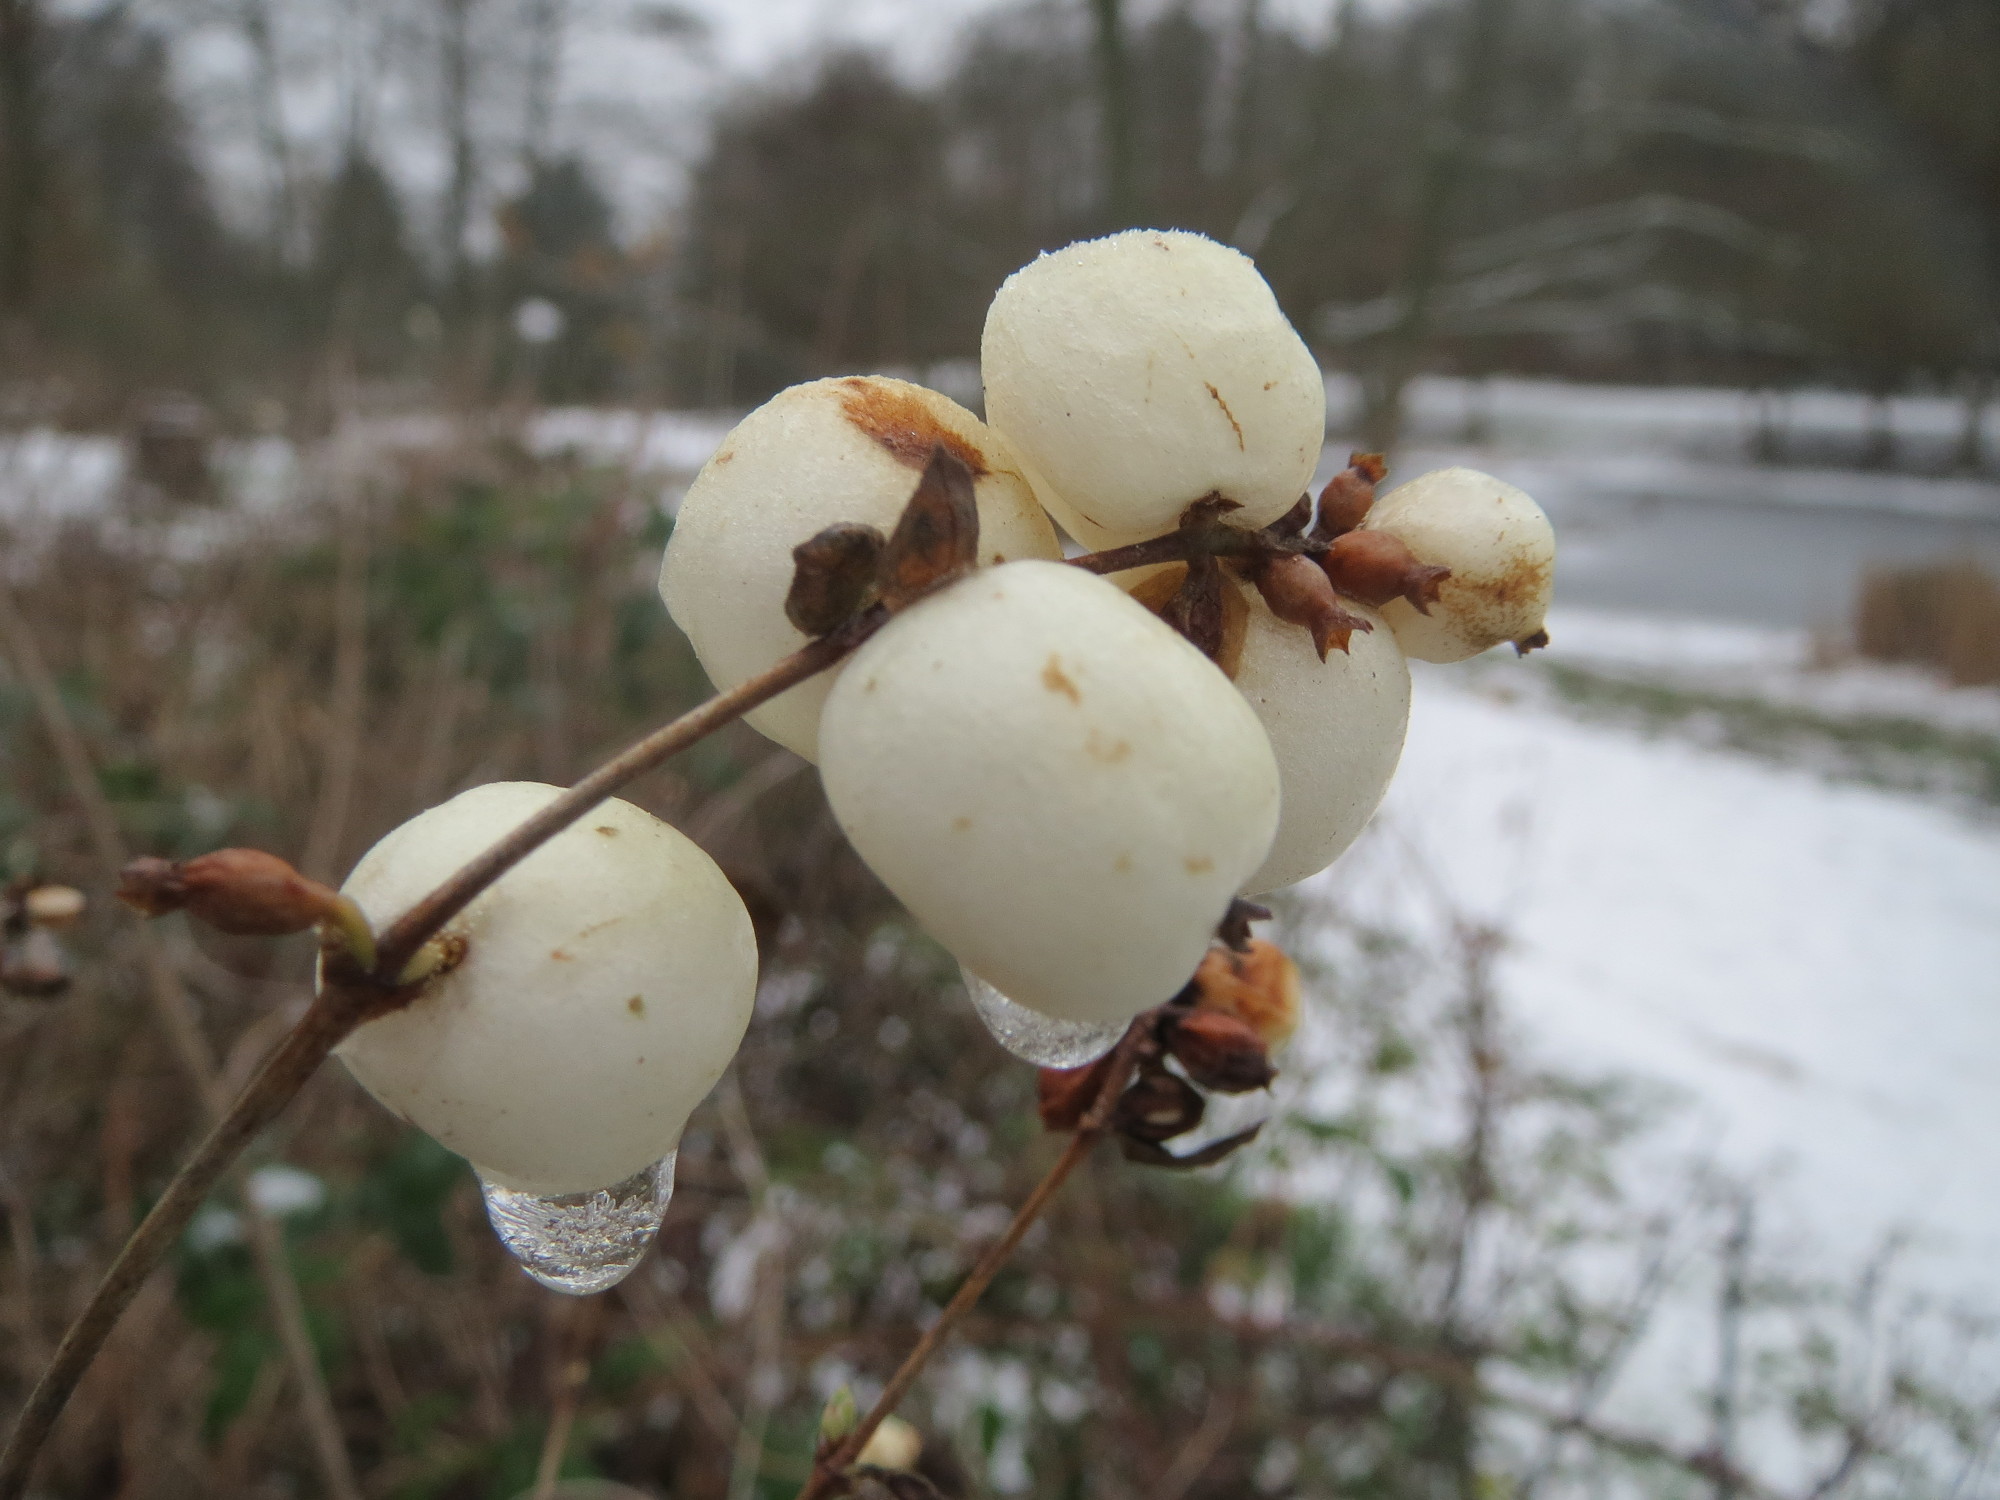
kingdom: Plantae
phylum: Tracheophyta
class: Magnoliopsida
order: Dipsacales
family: Caprifoliaceae
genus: Symphoricarpos
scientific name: Symphoricarpos albus
